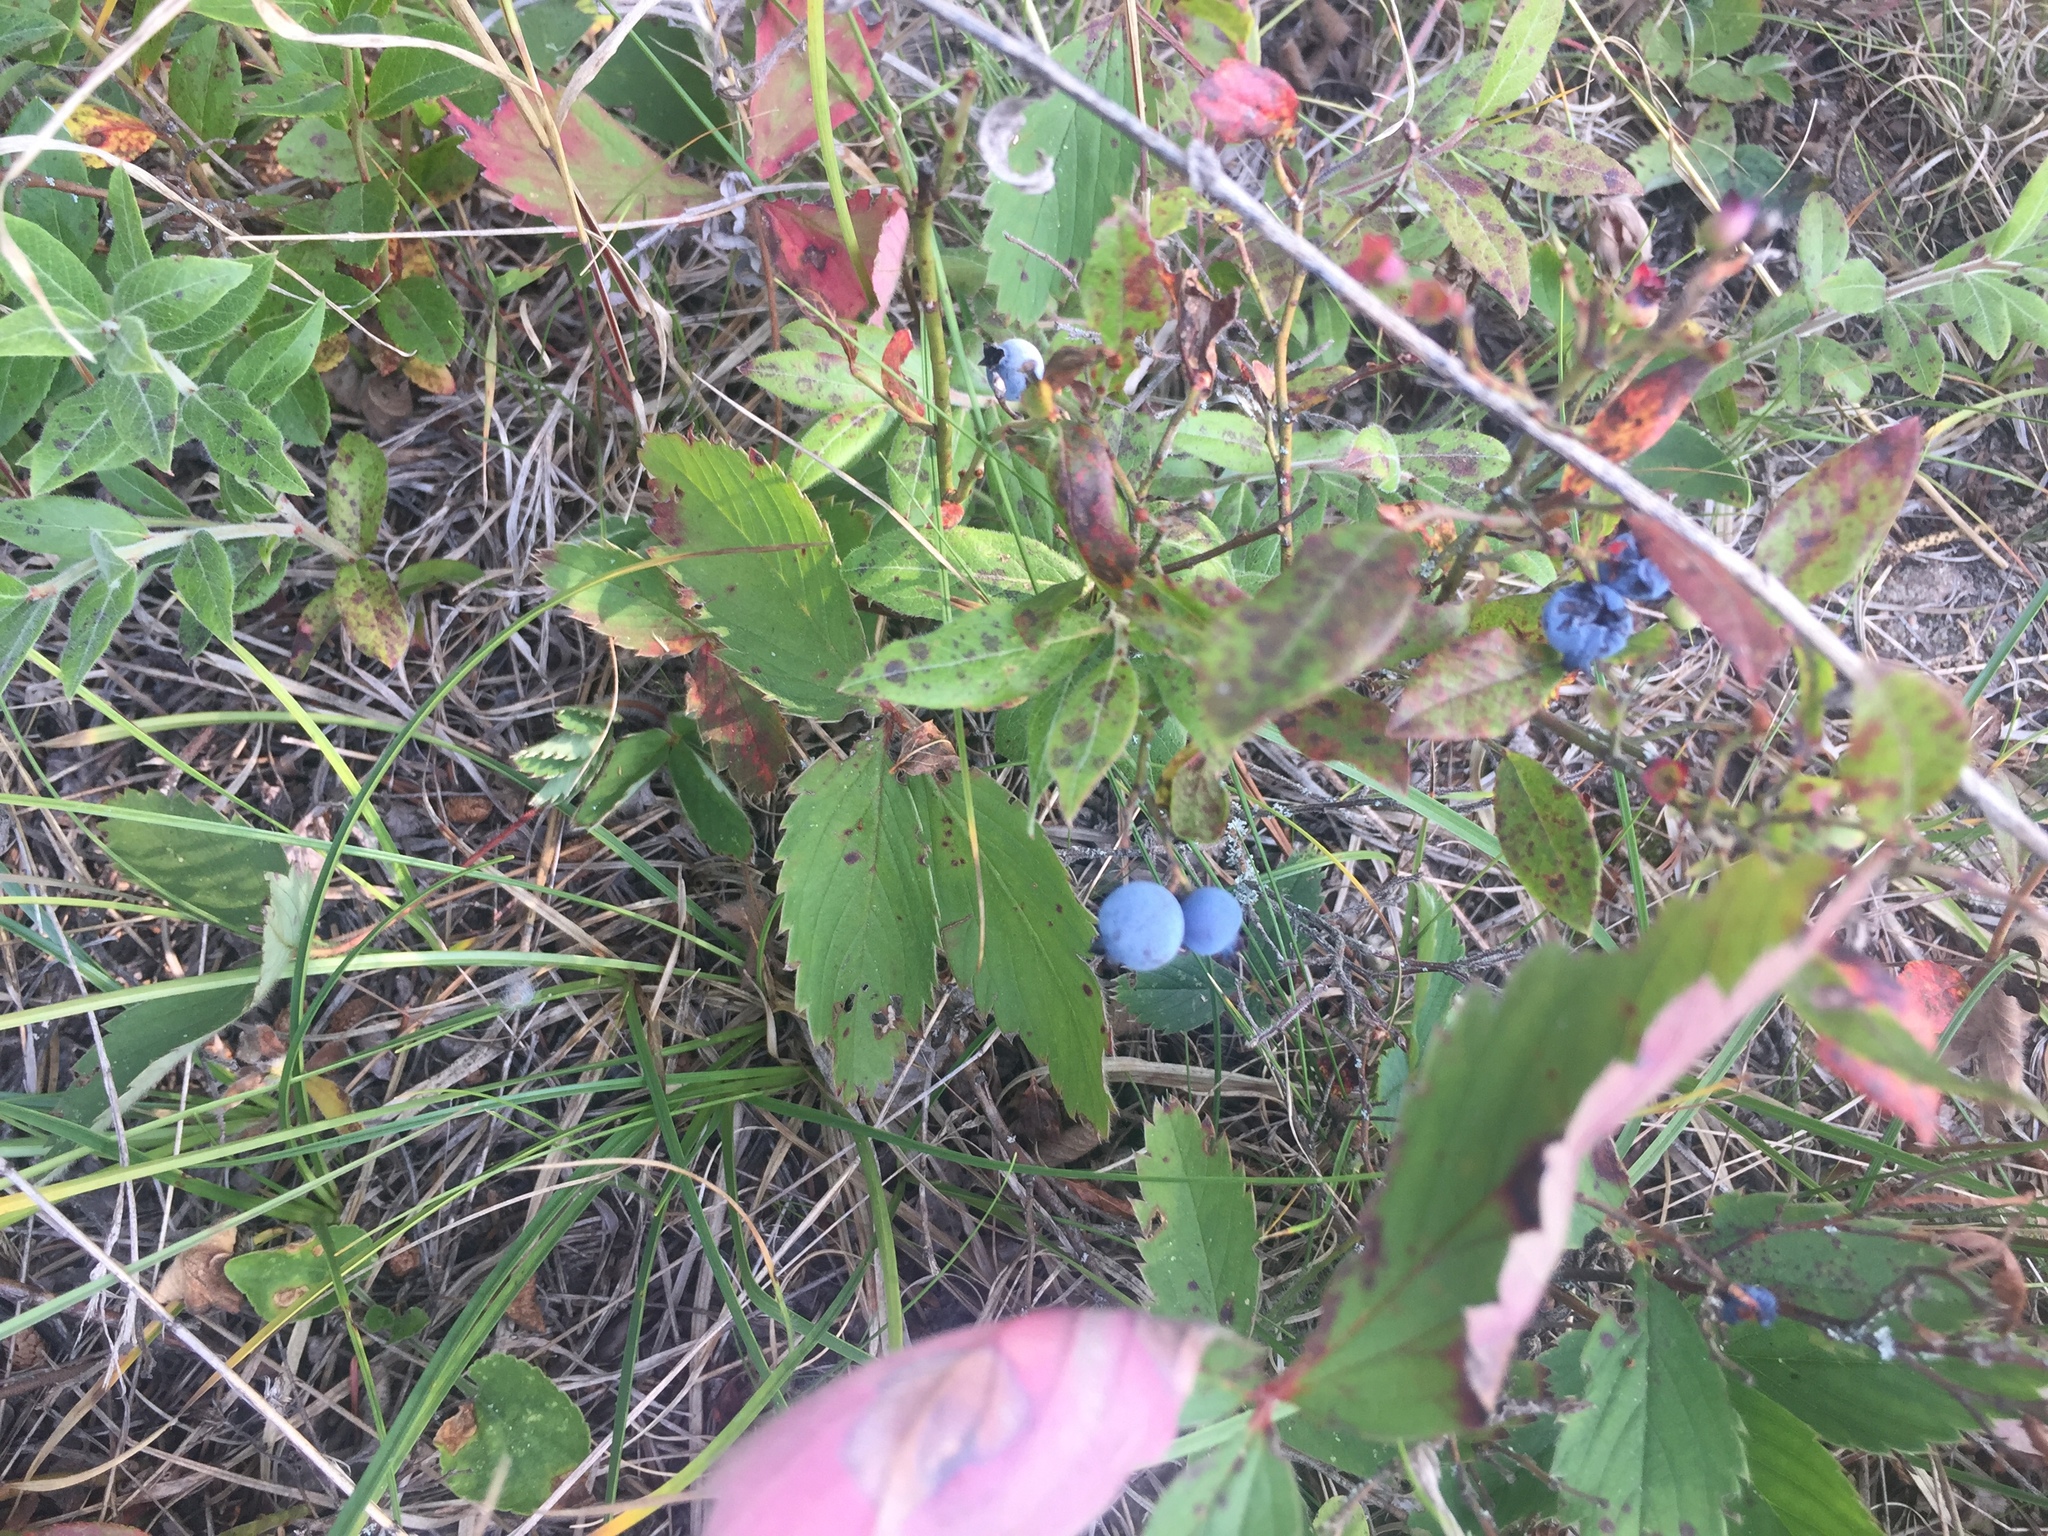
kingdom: Plantae
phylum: Tracheophyta
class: Magnoliopsida
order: Ericales
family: Ericaceae
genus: Vaccinium
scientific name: Vaccinium angustifolium
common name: Early lowbush blueberry
